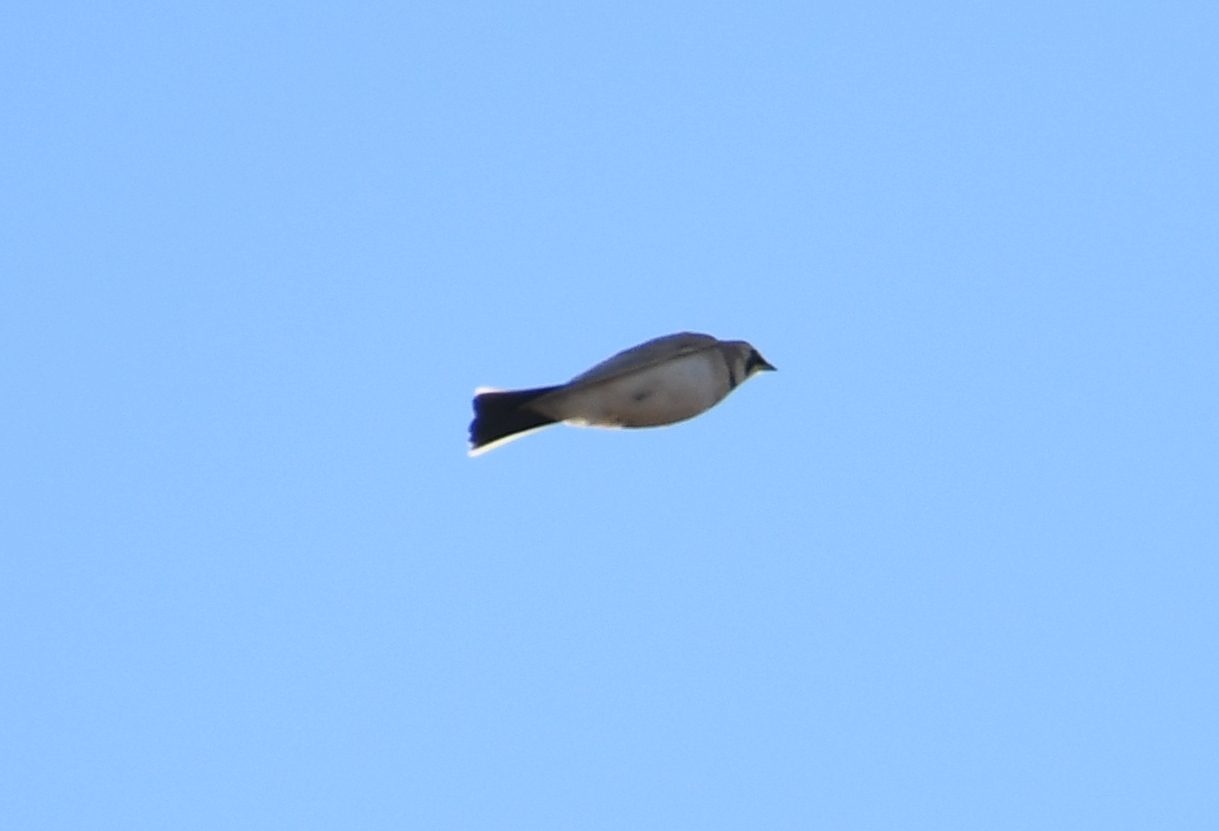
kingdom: Animalia
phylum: Chordata
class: Aves
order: Passeriformes
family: Alaudidae
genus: Eremophila
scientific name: Eremophila alpestris
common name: Horned lark
